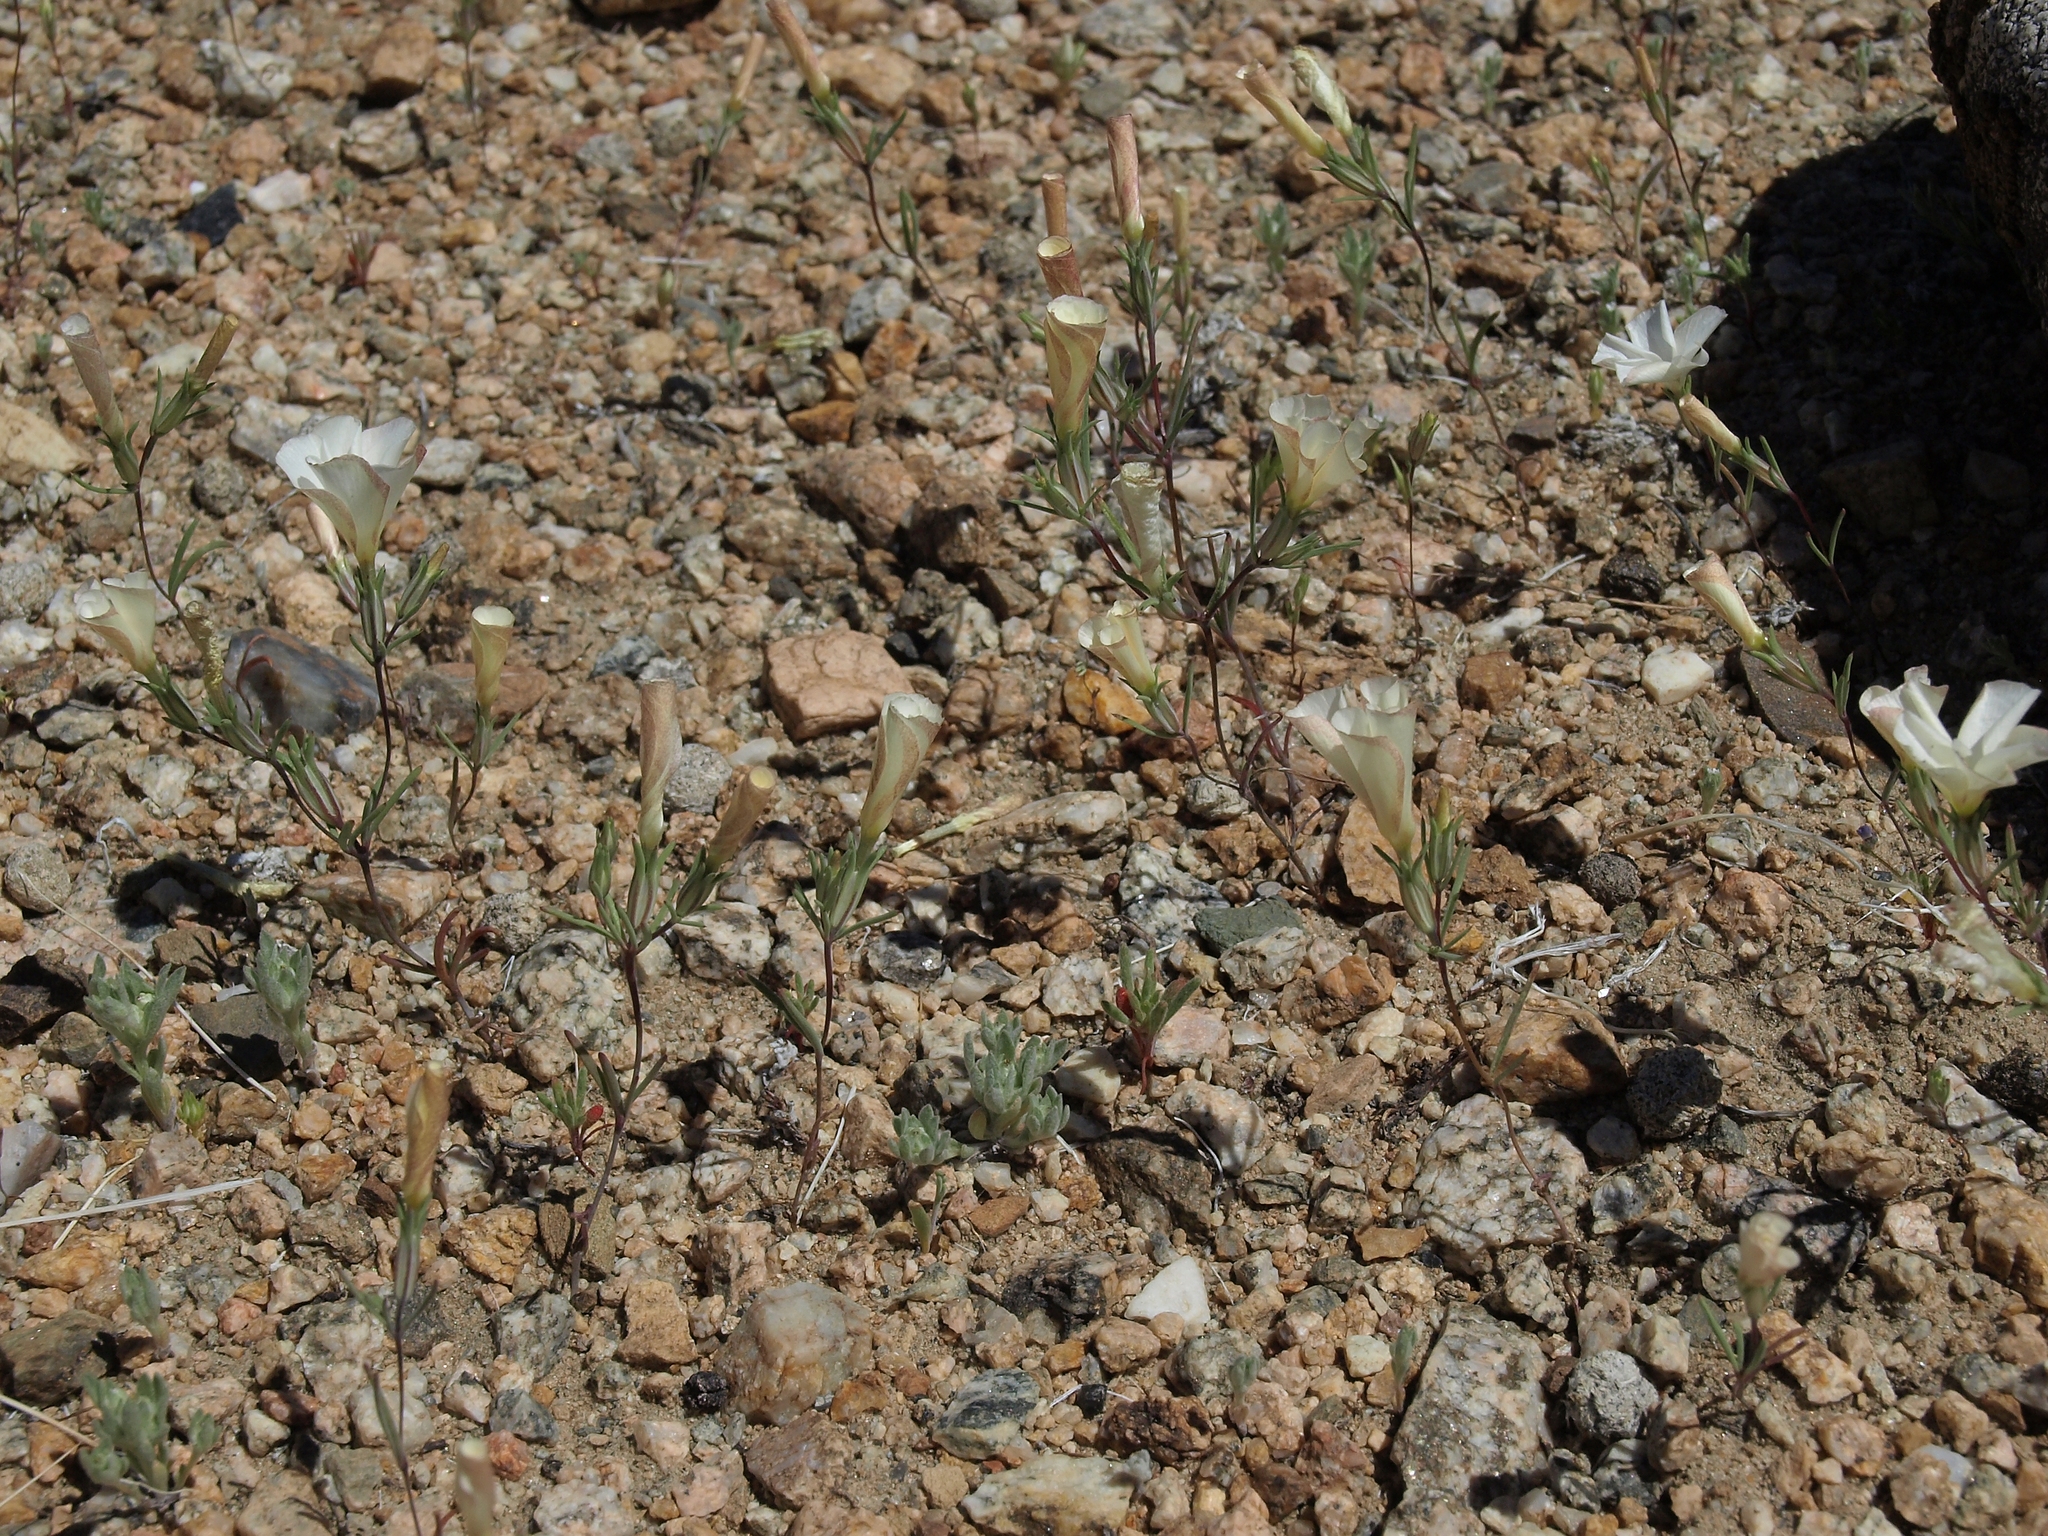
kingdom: Plantae
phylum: Tracheophyta
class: Magnoliopsida
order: Ericales
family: Polemoniaceae
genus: Linanthus
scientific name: Linanthus dichotomus
